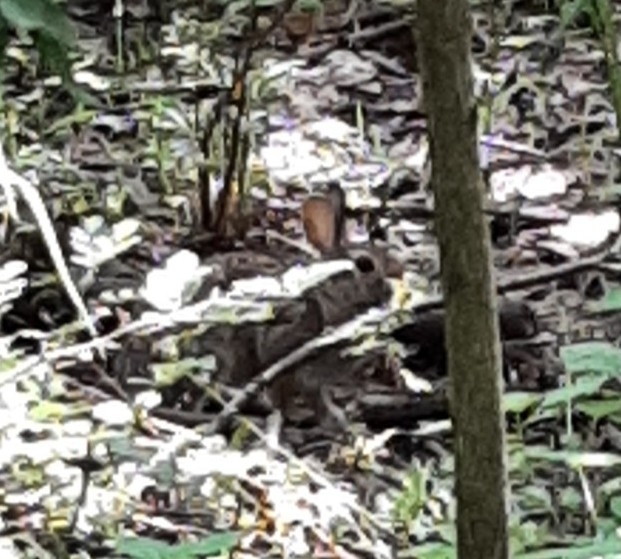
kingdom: Animalia
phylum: Chordata
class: Mammalia
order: Lagomorpha
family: Leporidae
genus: Sylvilagus
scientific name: Sylvilagus floridanus
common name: Eastern cottontail
